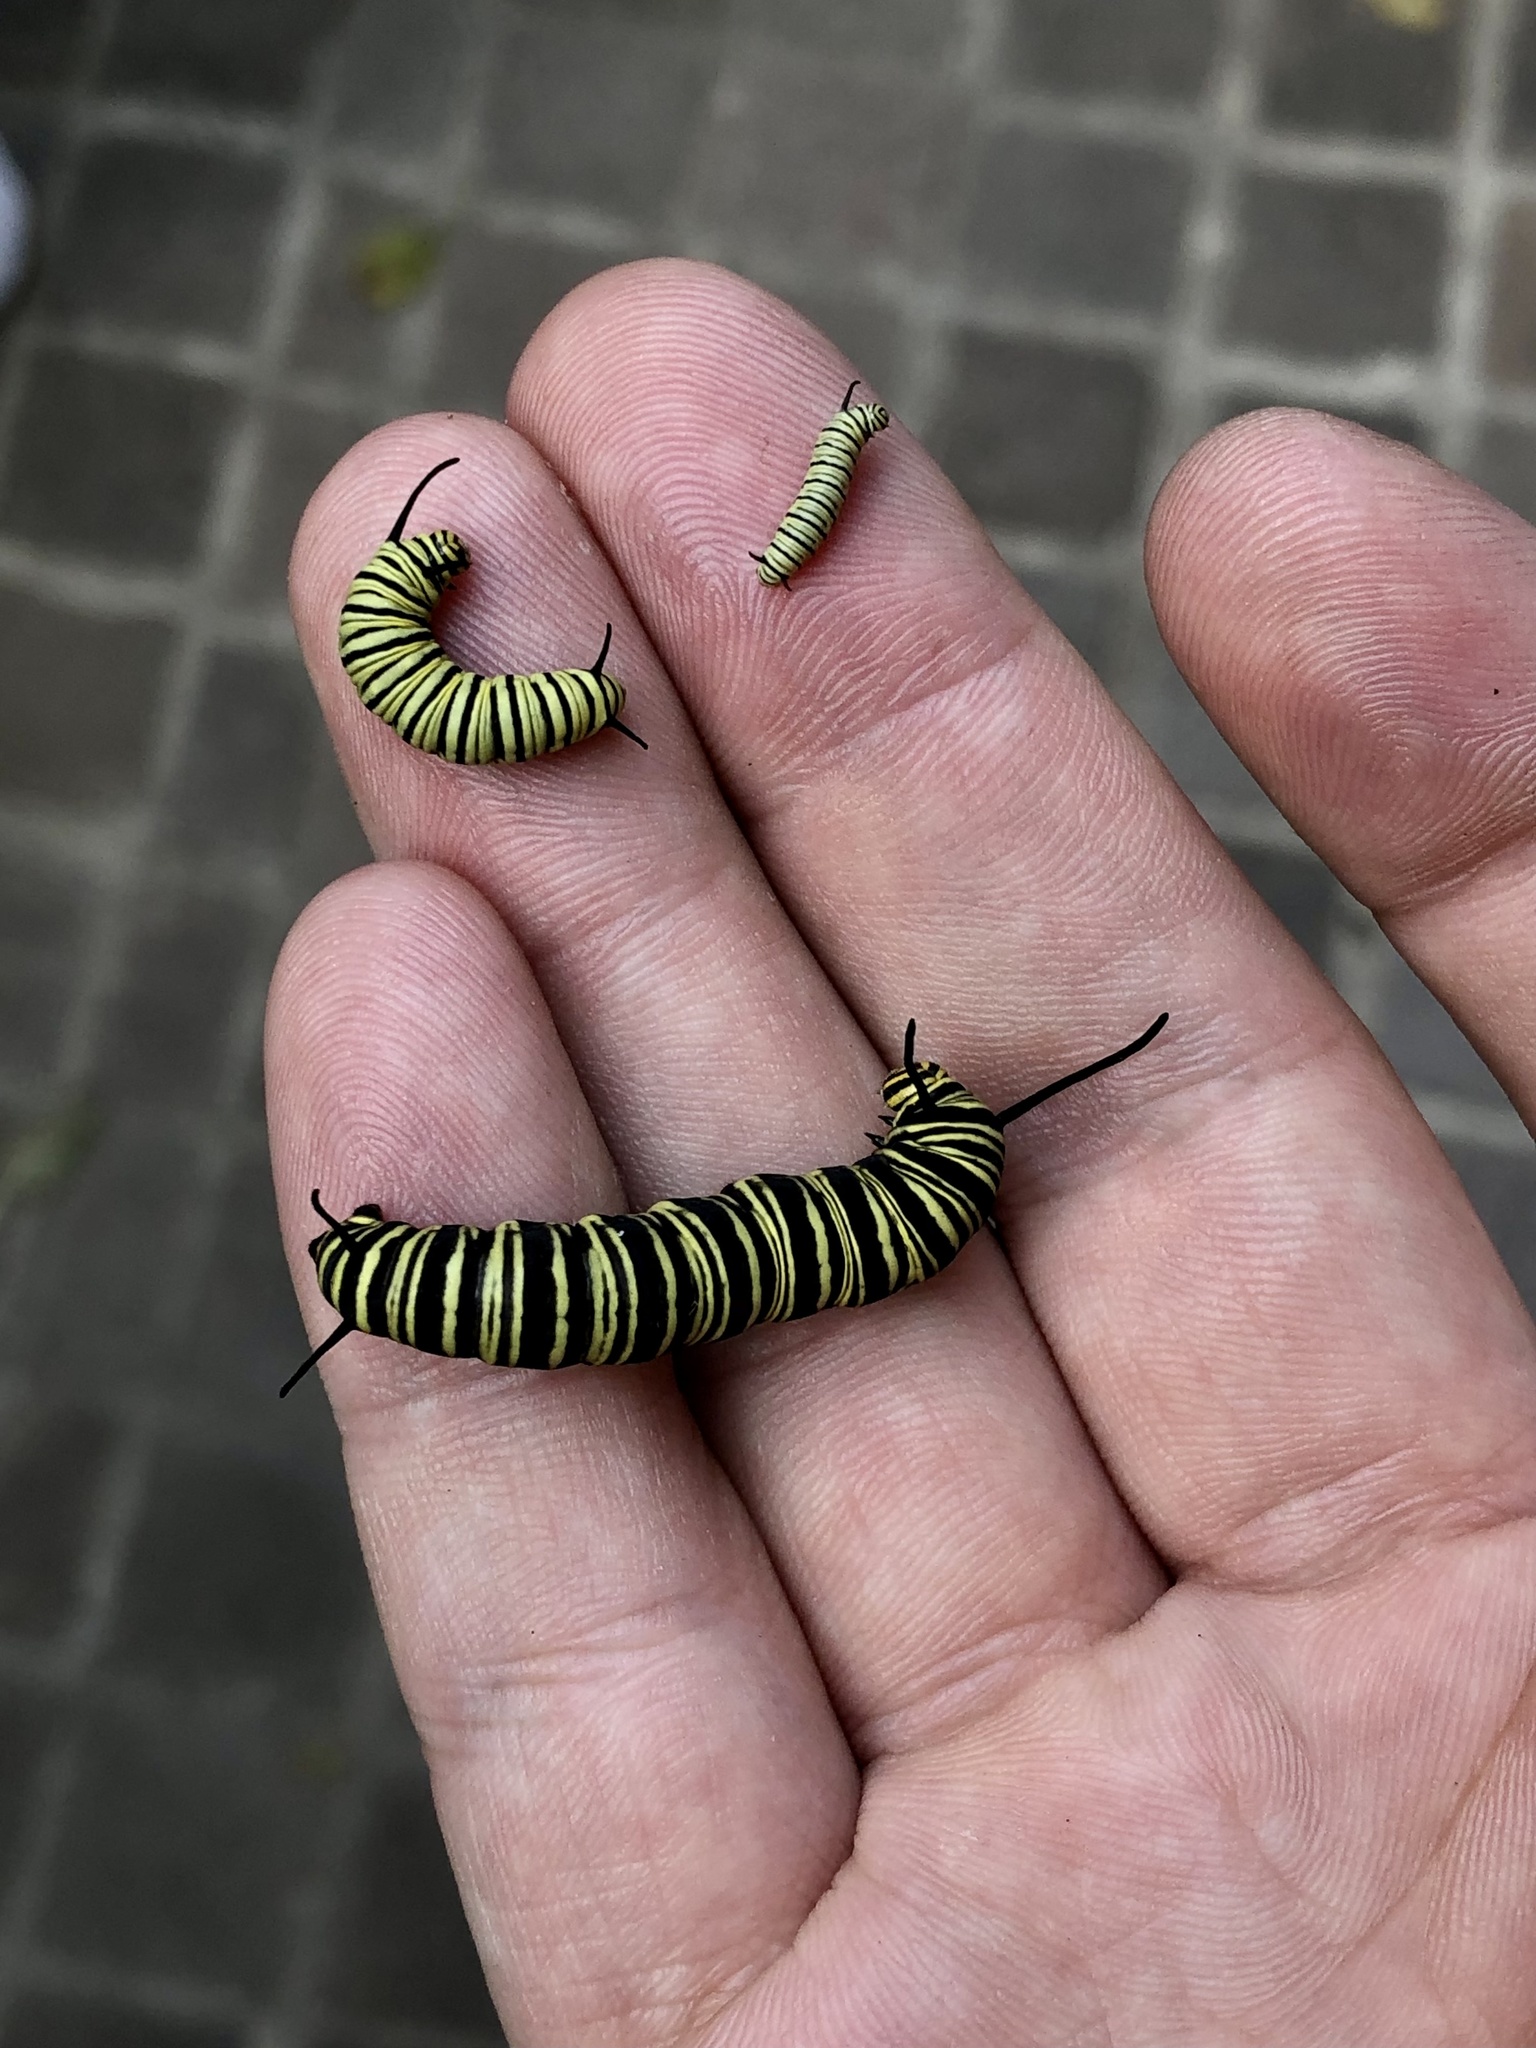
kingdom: Animalia
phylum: Arthropoda
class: Insecta
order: Lepidoptera
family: Nymphalidae
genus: Danaus
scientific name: Danaus erippus
